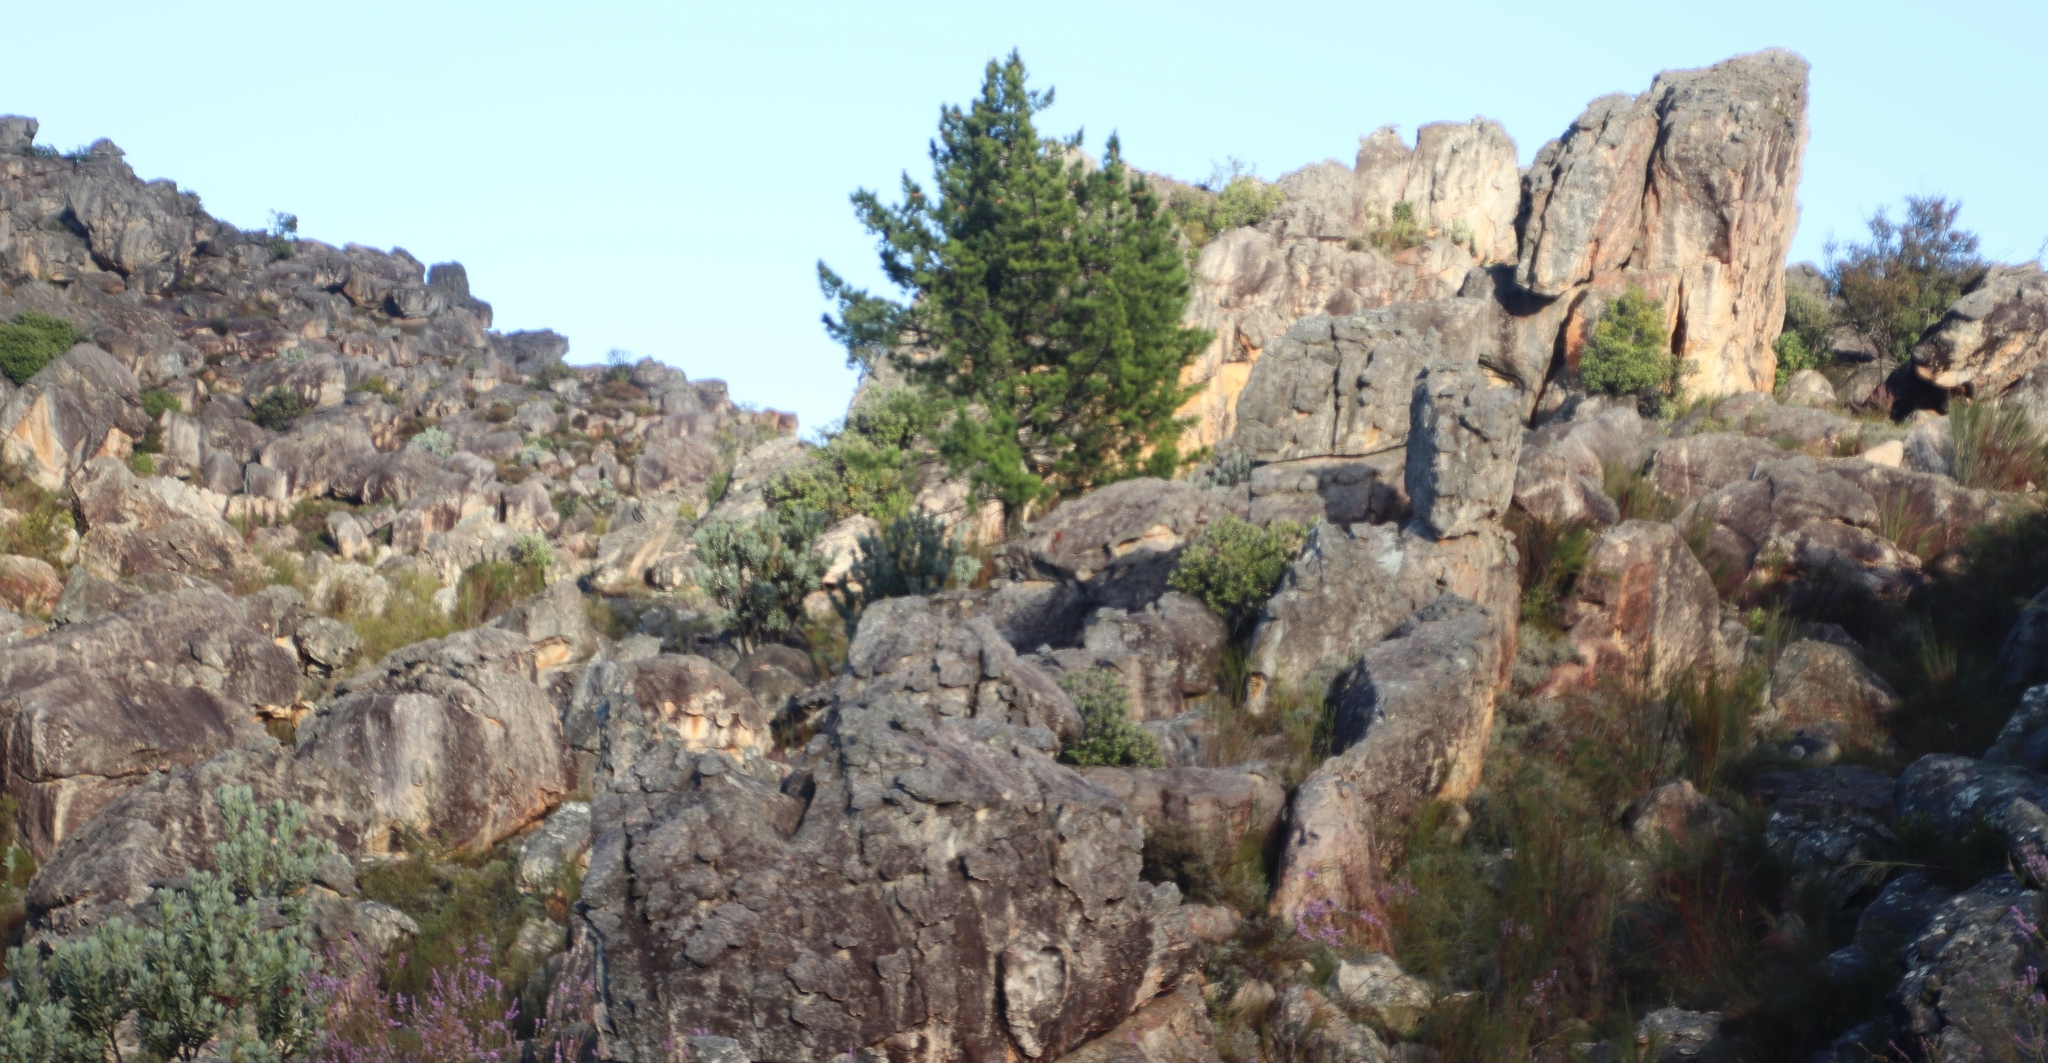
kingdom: Plantae
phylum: Tracheophyta
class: Pinopsida
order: Pinales
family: Pinaceae
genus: Pinus
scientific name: Pinus radiata
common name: Monterey pine
